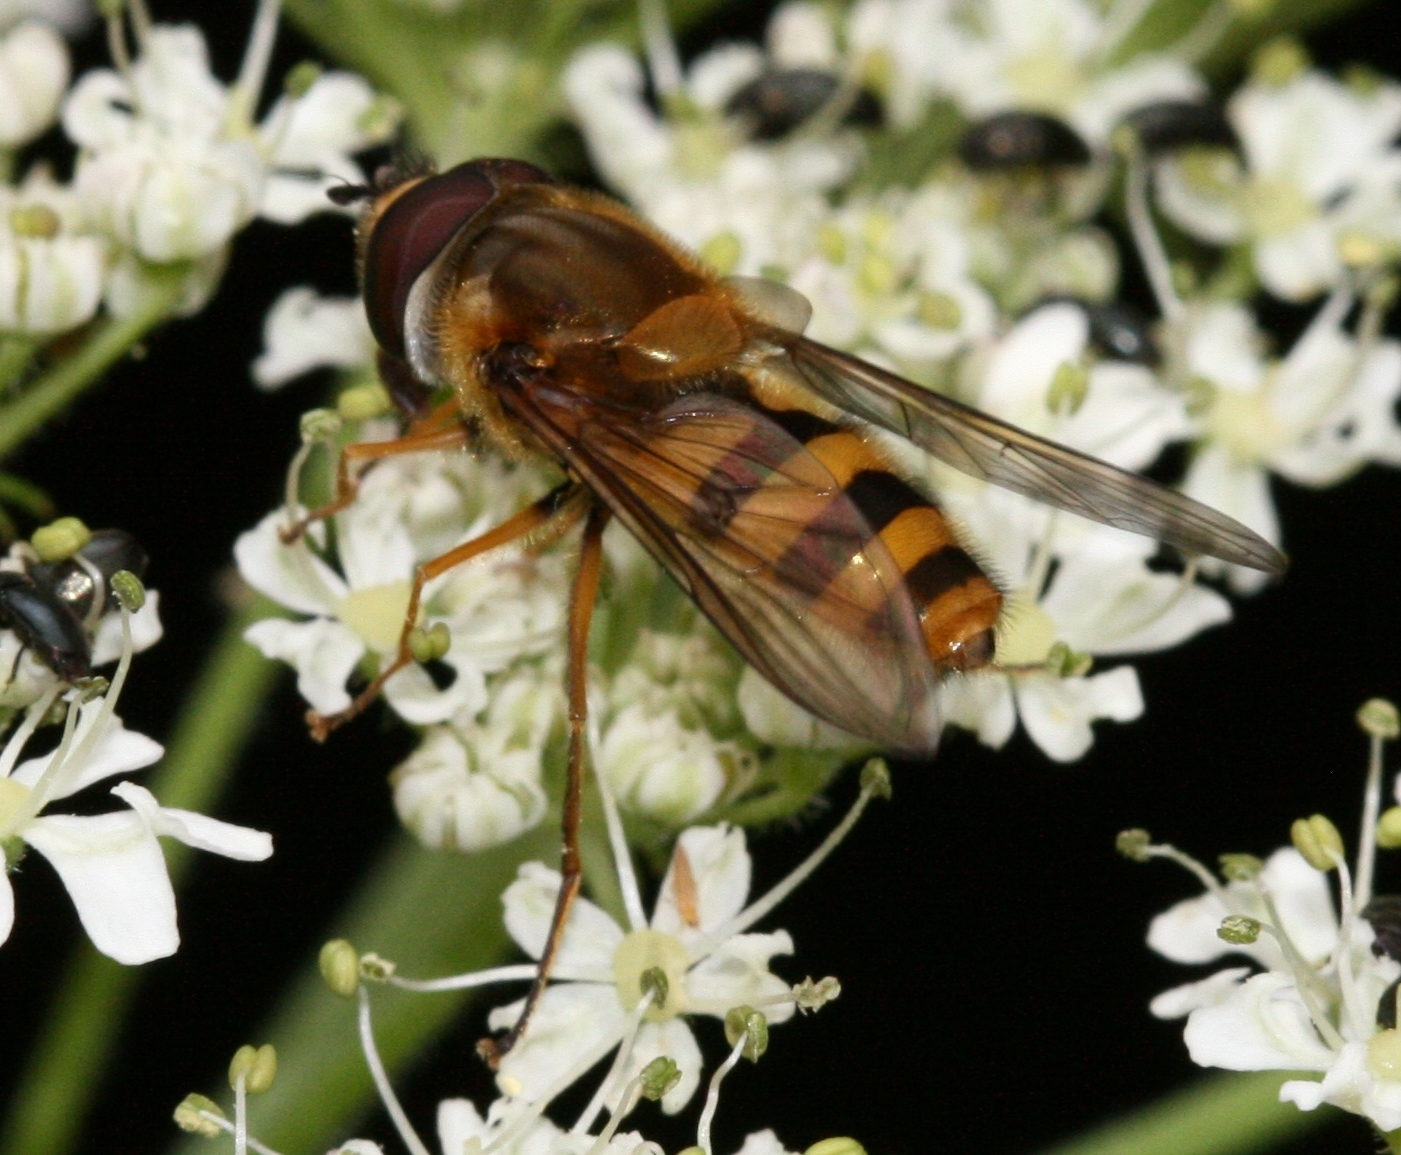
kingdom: Animalia
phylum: Arthropoda
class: Insecta
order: Diptera
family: Syrphidae
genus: Epistrophe
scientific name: Epistrophe grossulariae
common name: Black-horned smoothtail
